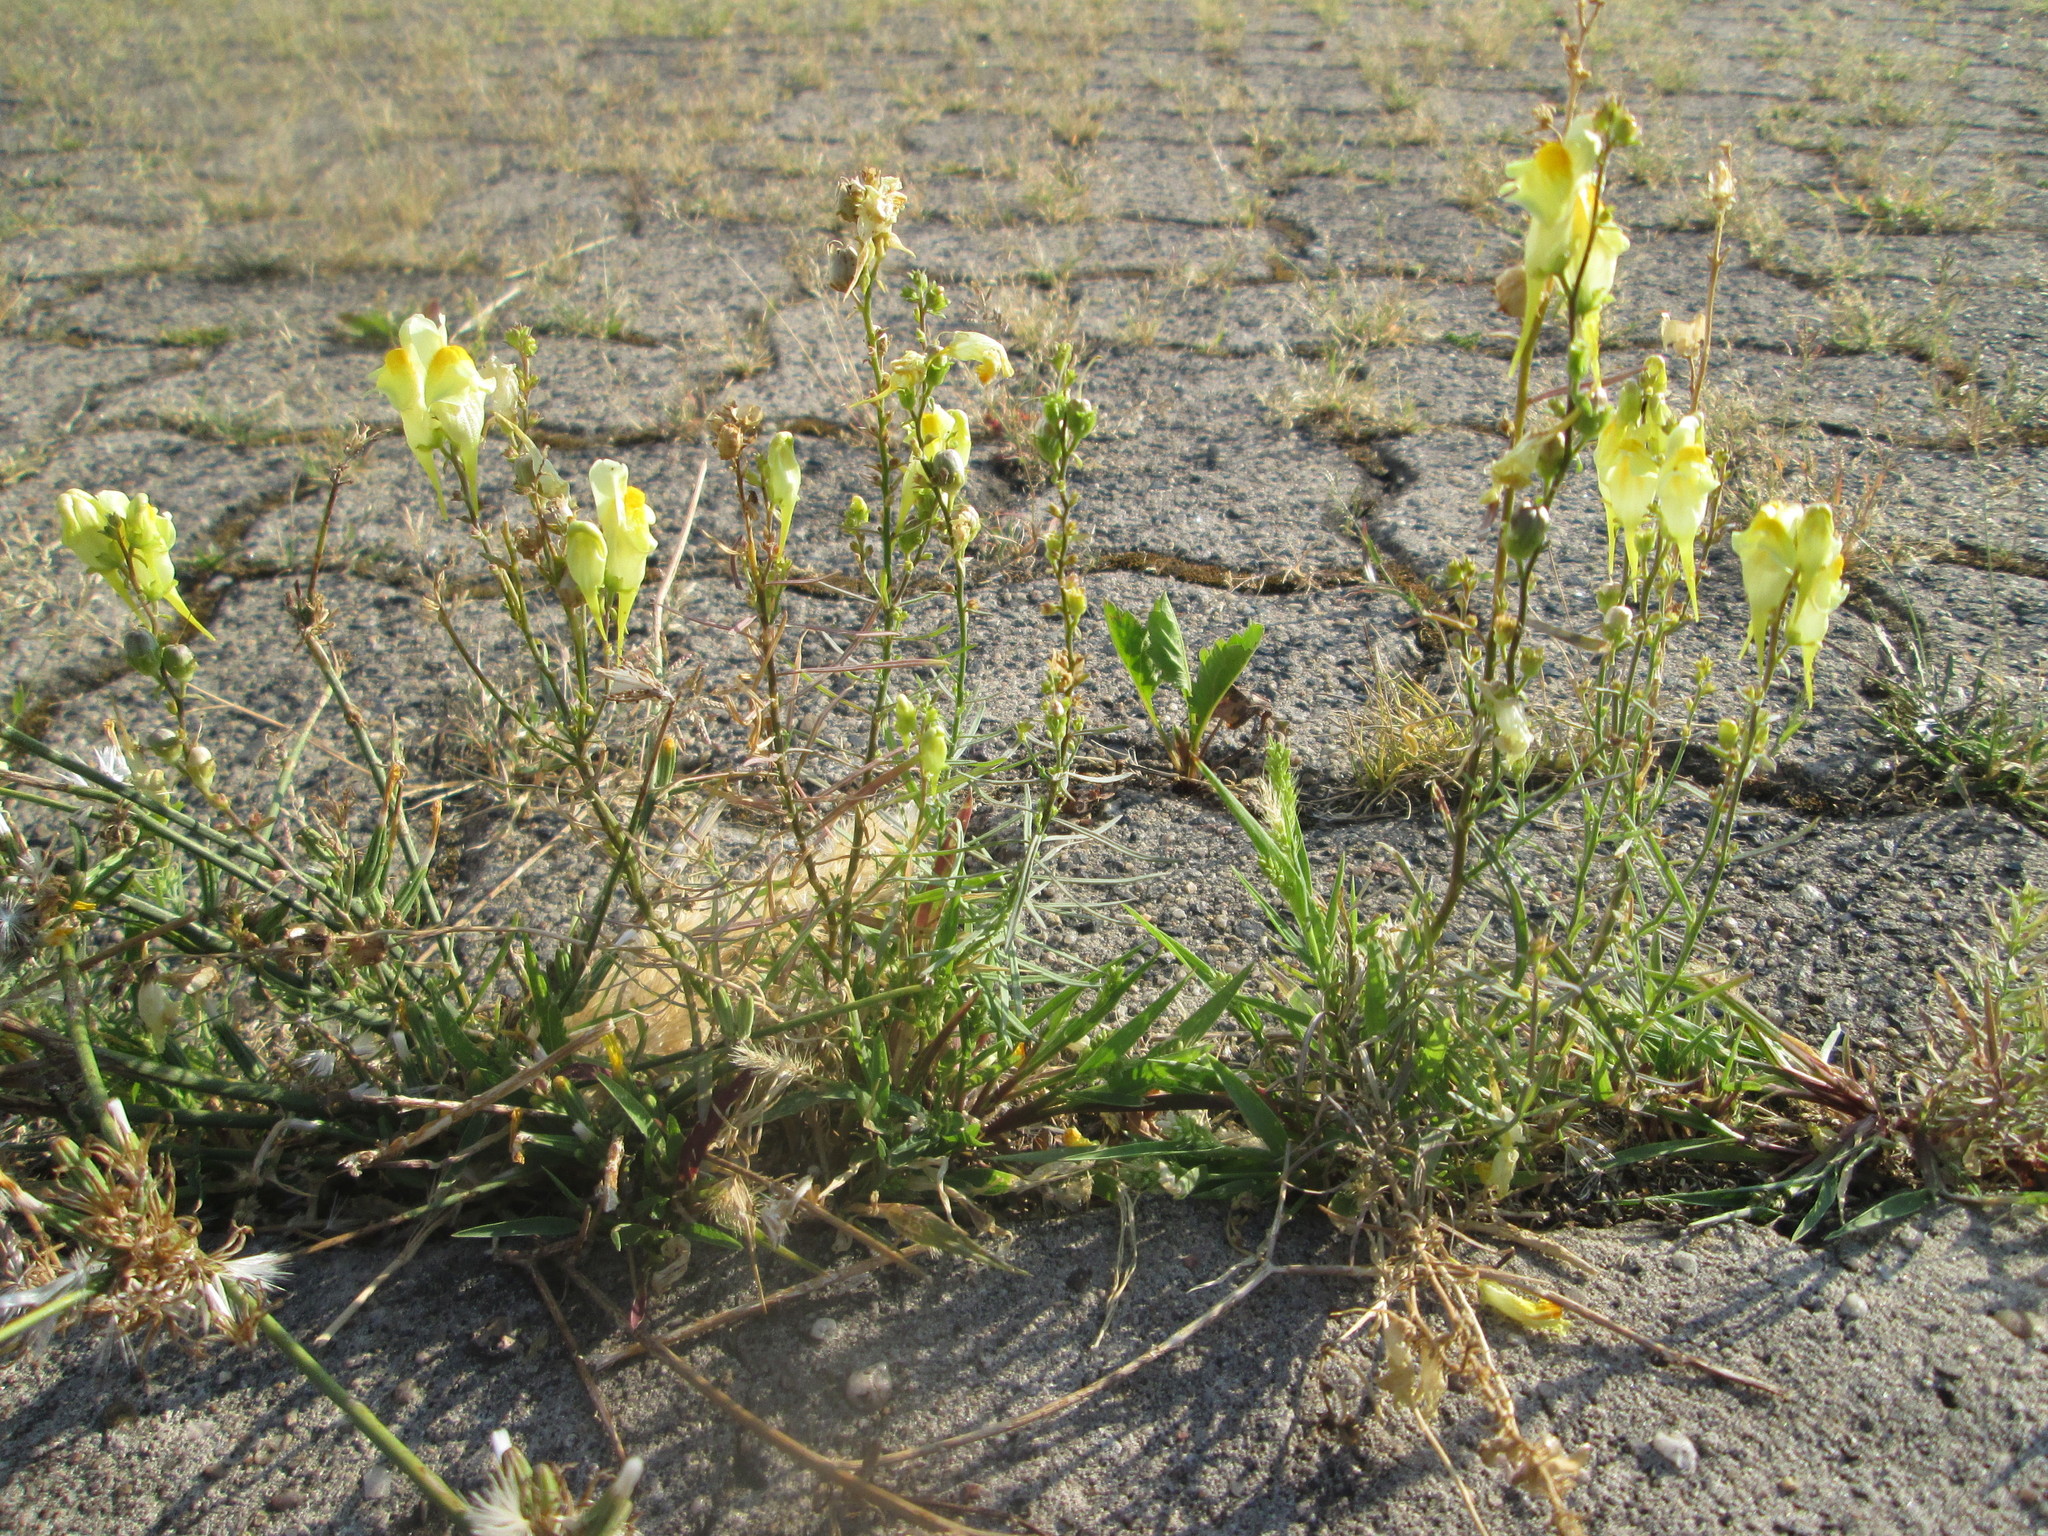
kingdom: Plantae
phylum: Tracheophyta
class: Magnoliopsida
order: Lamiales
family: Plantaginaceae
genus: Linaria
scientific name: Linaria vulgaris
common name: Butter and eggs
